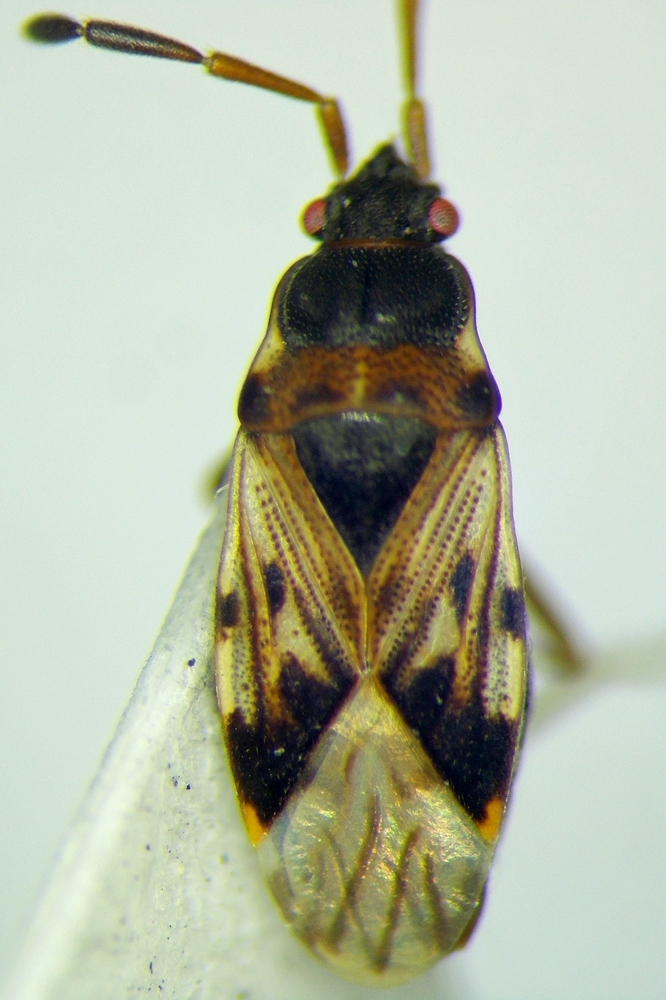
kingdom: Animalia
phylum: Arthropoda
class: Insecta
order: Hemiptera
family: Rhyparochromidae
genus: Scolopostethus
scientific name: Scolopostethus affinis
